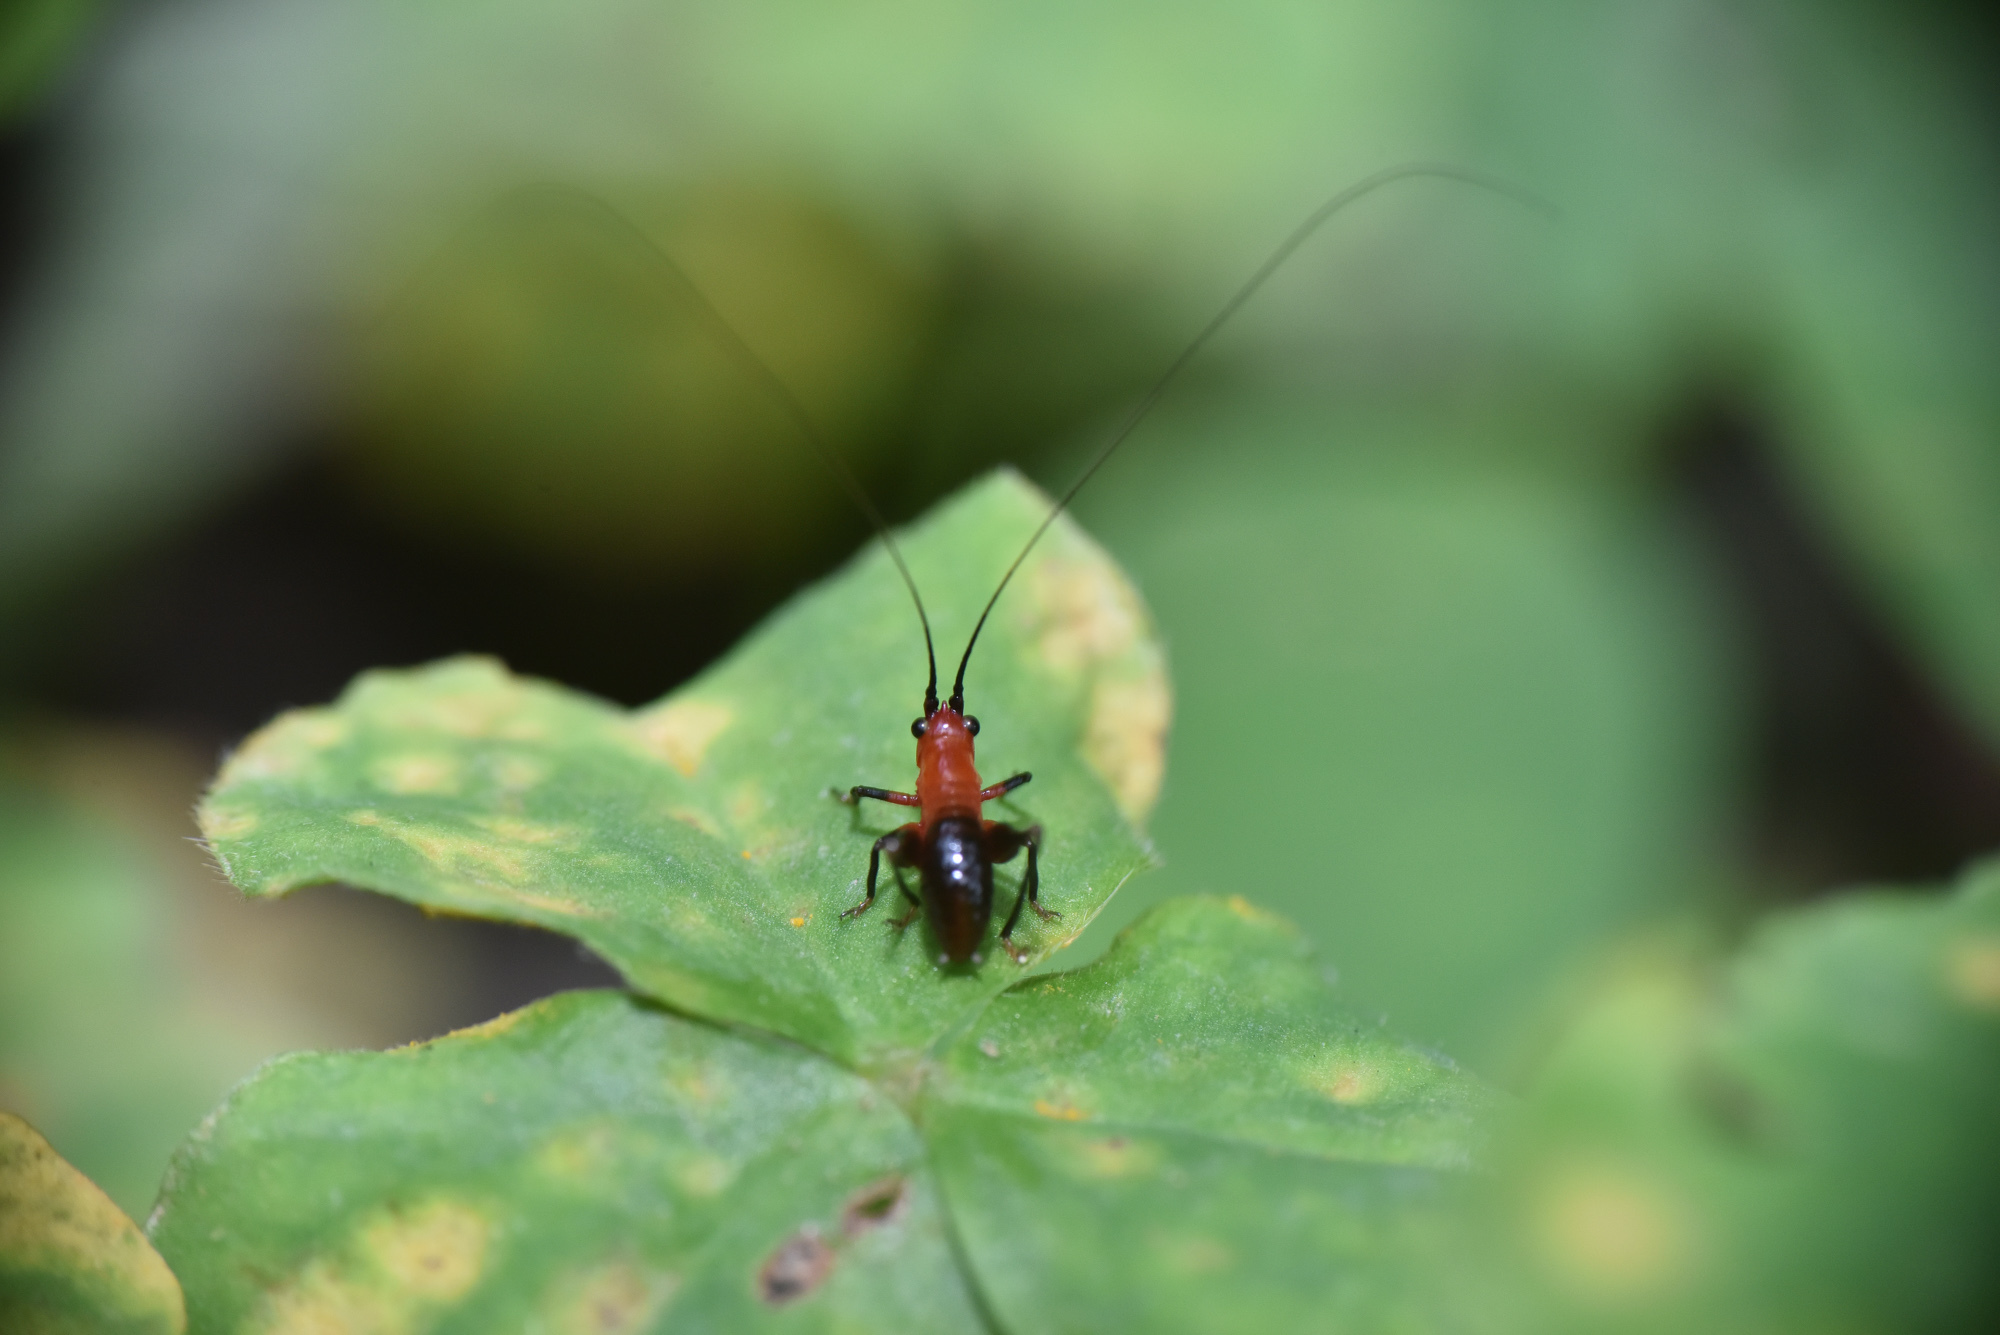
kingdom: Animalia
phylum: Arthropoda
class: Insecta
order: Orthoptera
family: Tettigoniidae
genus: Conocephalus
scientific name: Conocephalus melaenus
